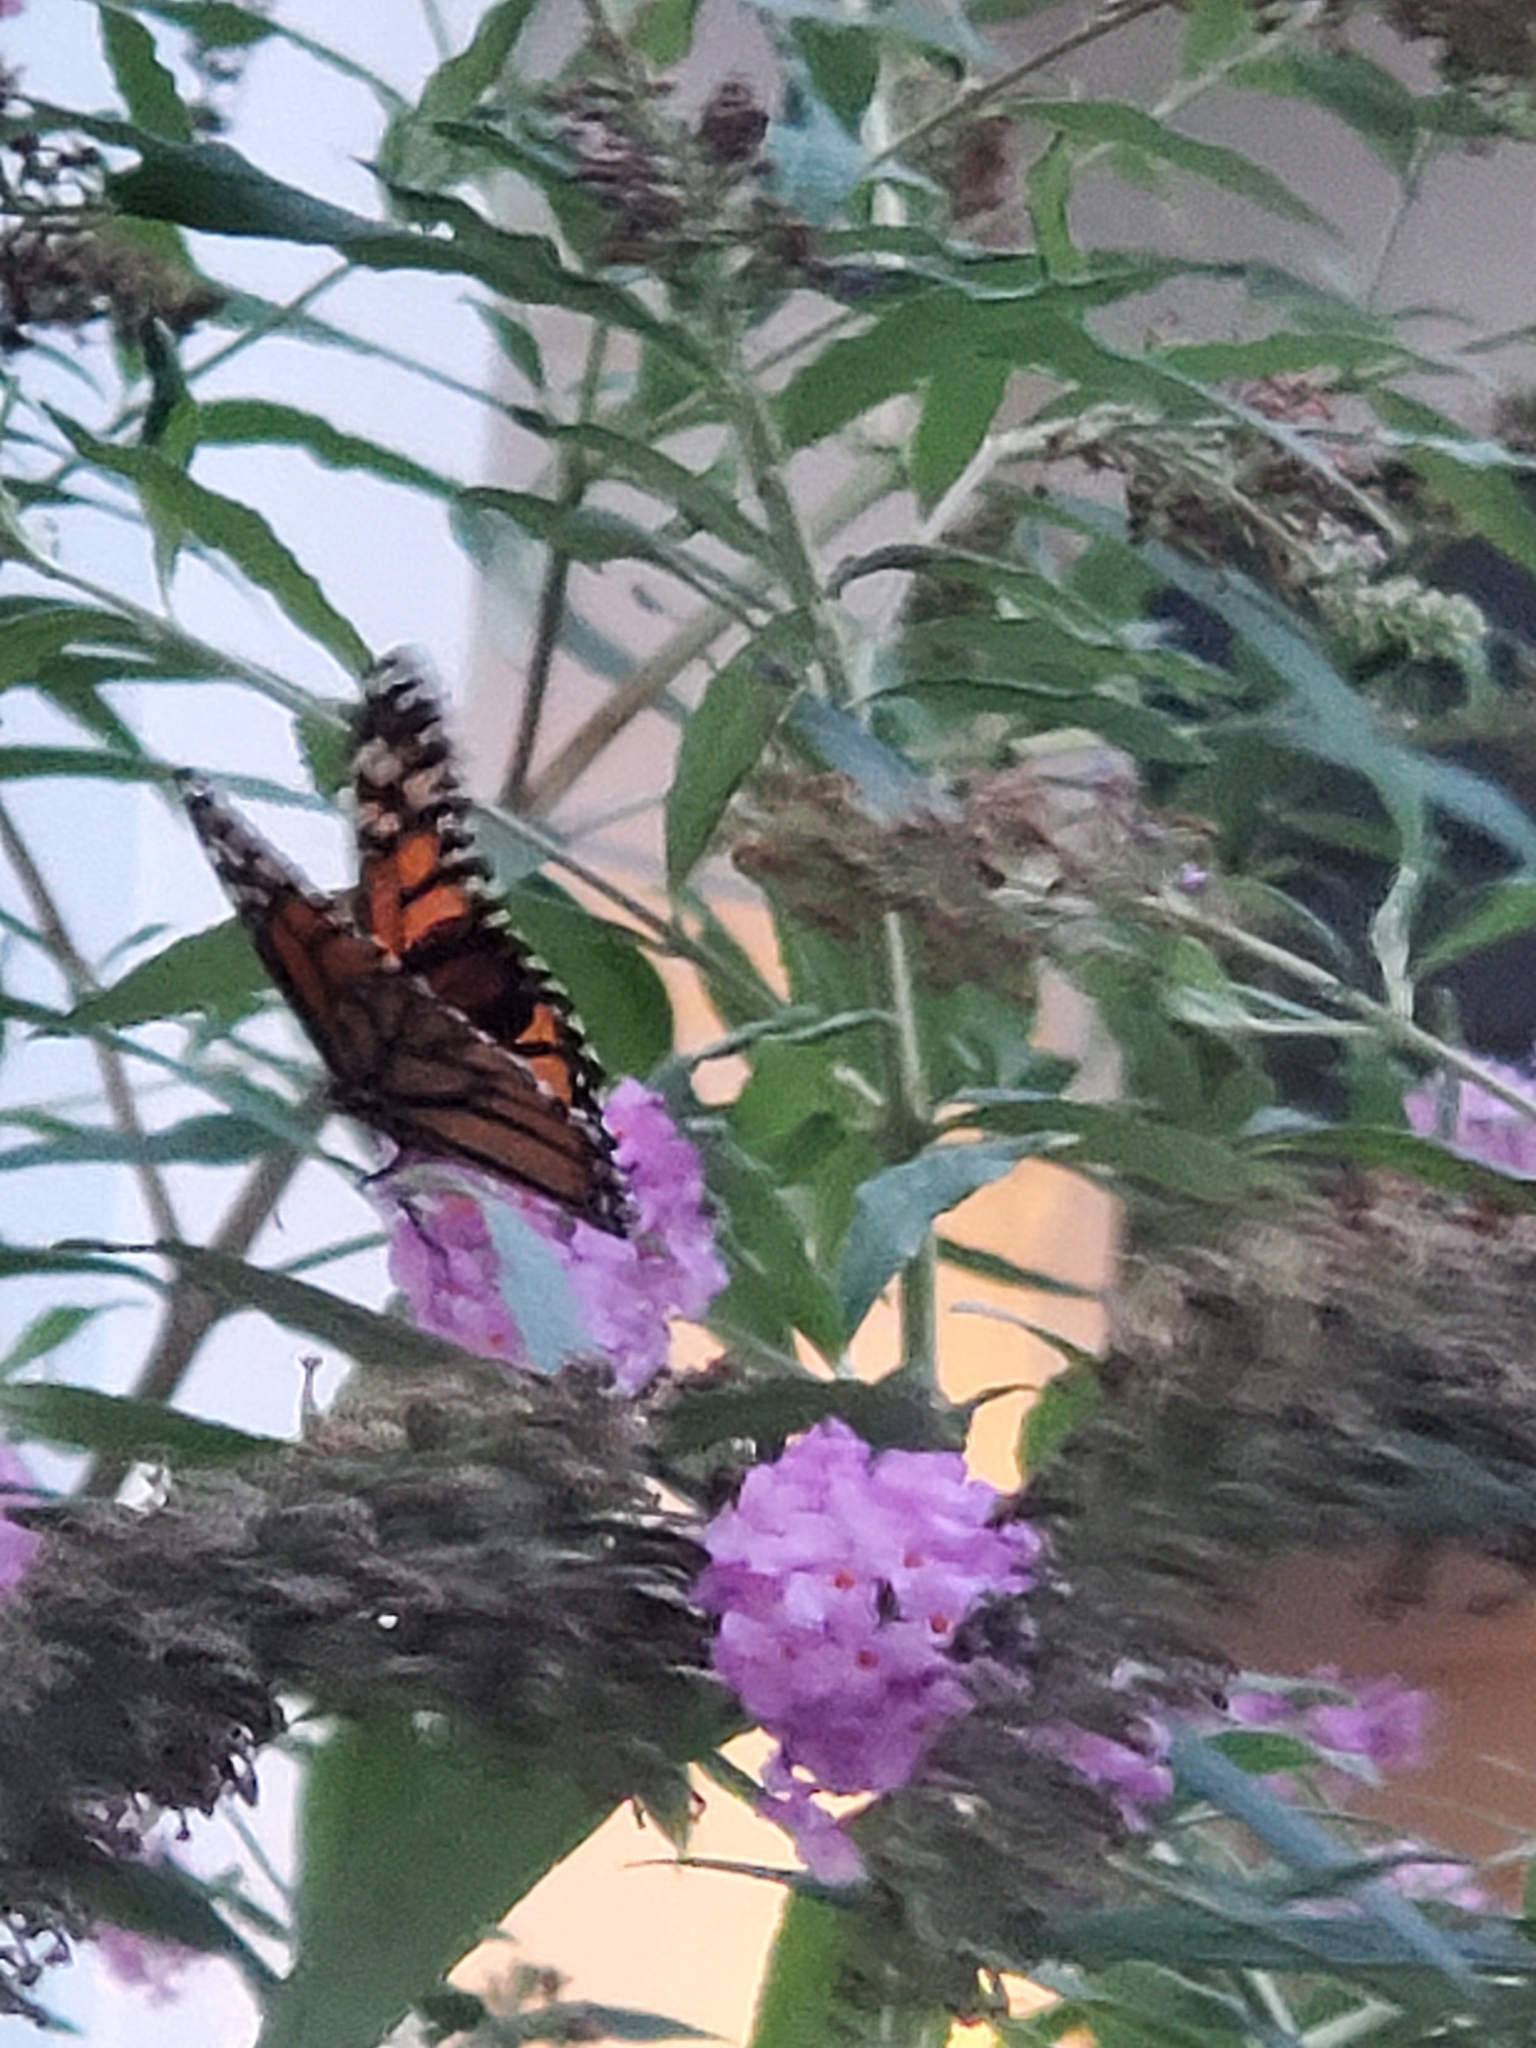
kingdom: Animalia
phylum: Arthropoda
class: Insecta
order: Lepidoptera
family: Nymphalidae
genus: Danaus
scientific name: Danaus plexippus
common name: Monarch
